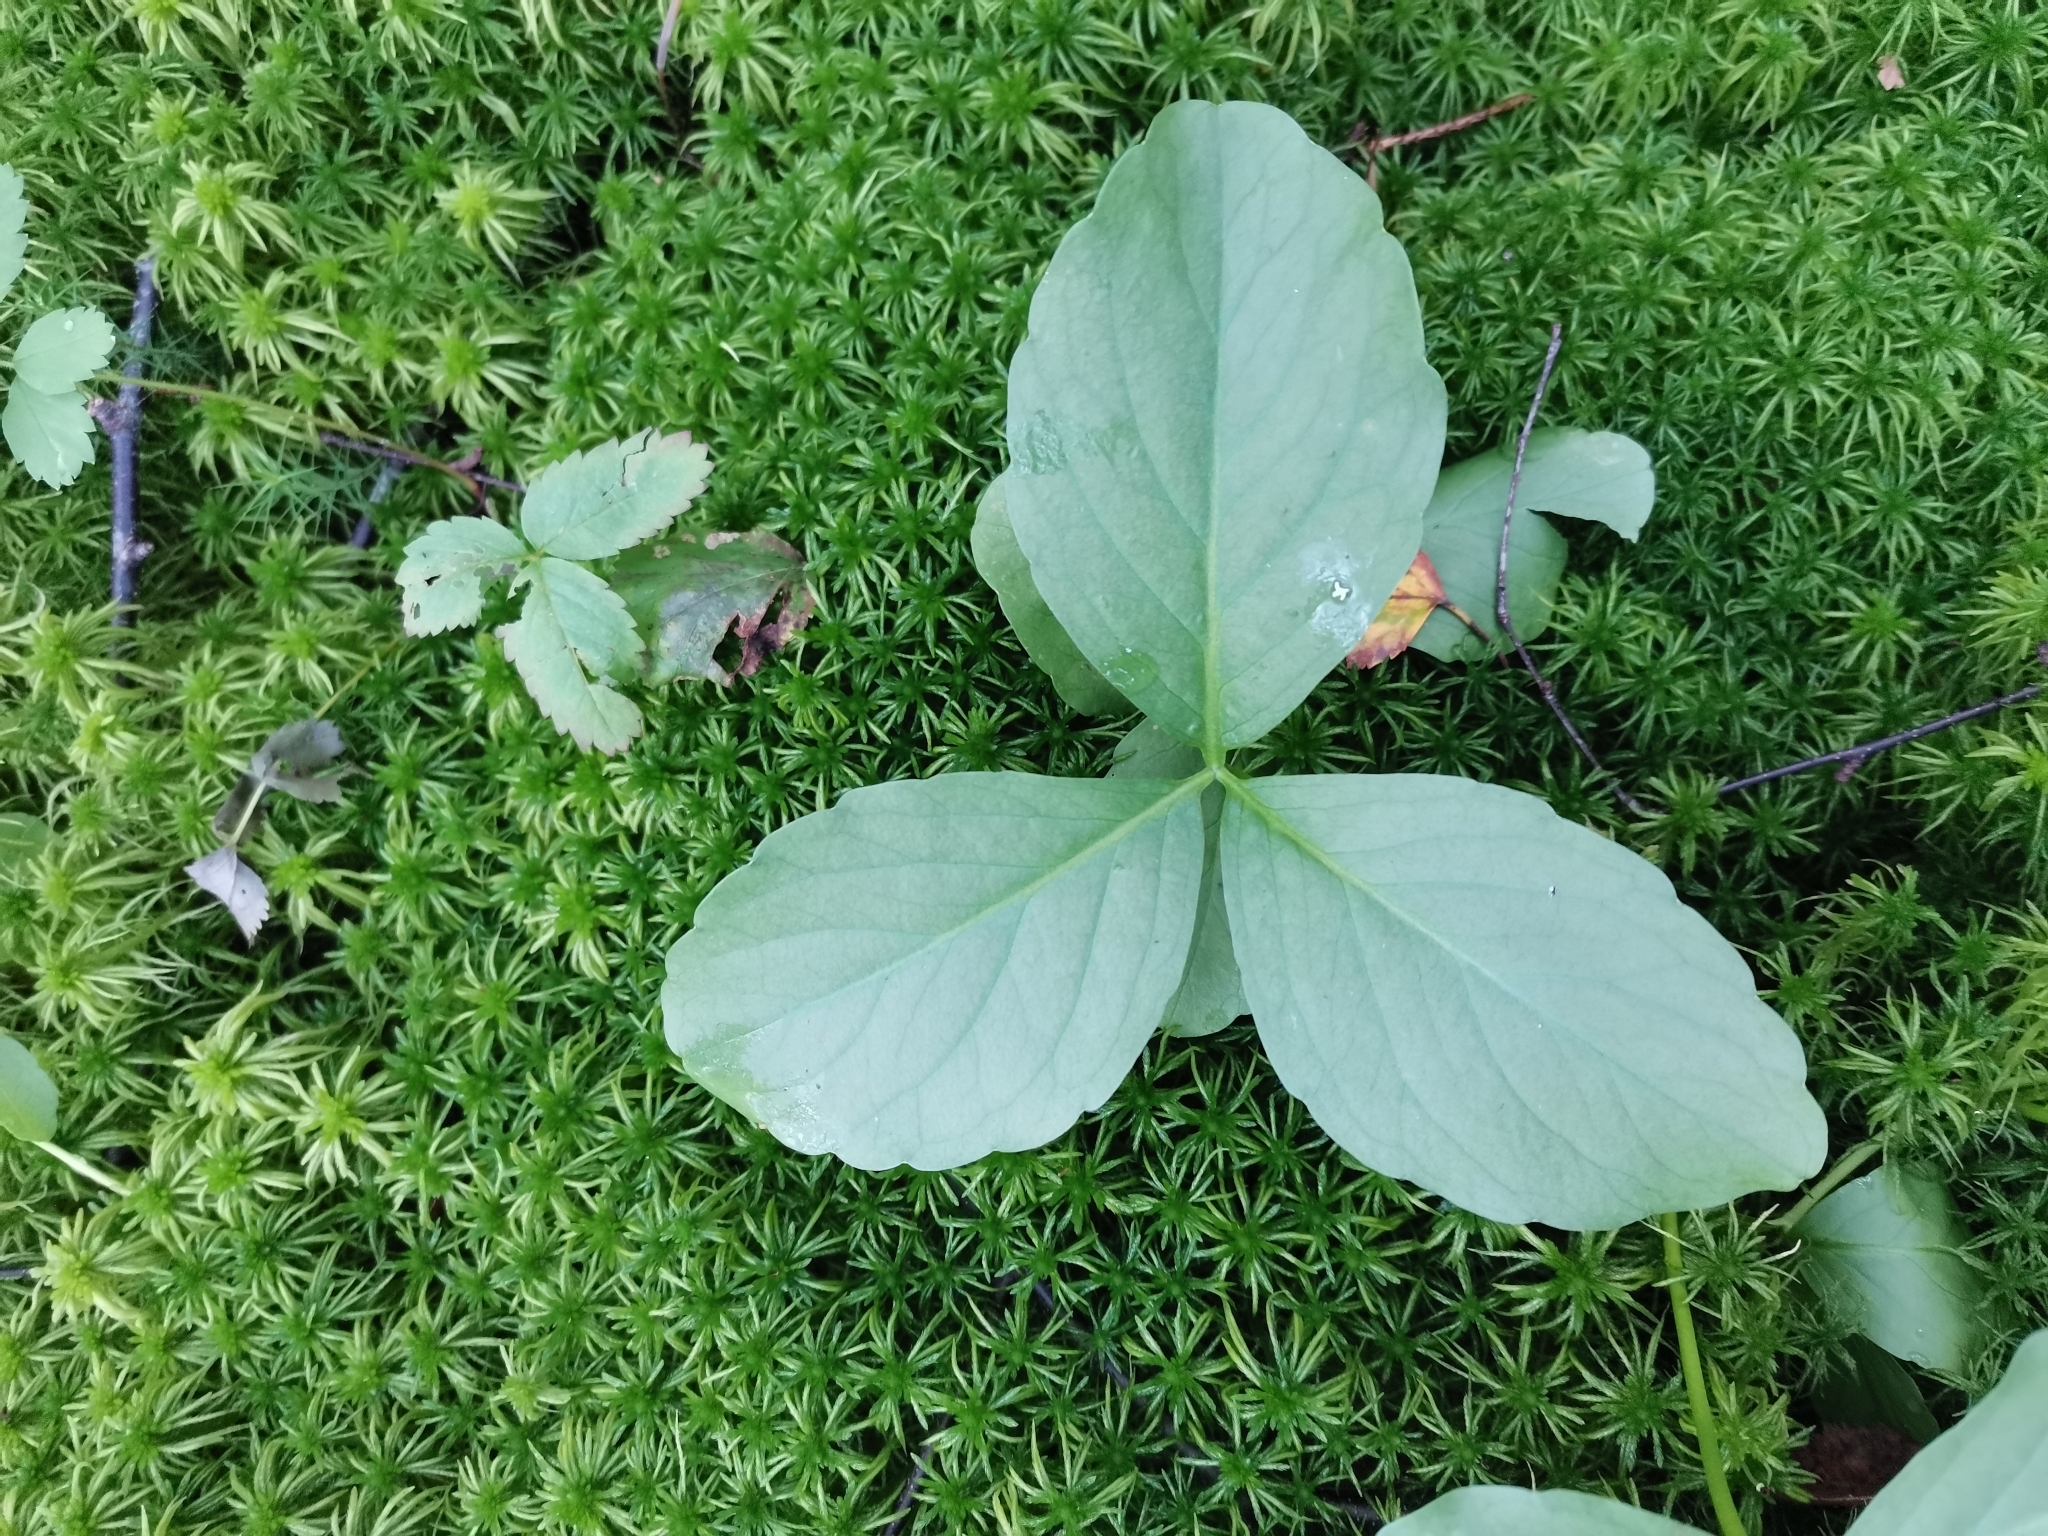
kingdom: Plantae
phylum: Tracheophyta
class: Magnoliopsida
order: Asterales
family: Menyanthaceae
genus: Menyanthes
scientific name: Menyanthes trifoliata
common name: Bogbean
